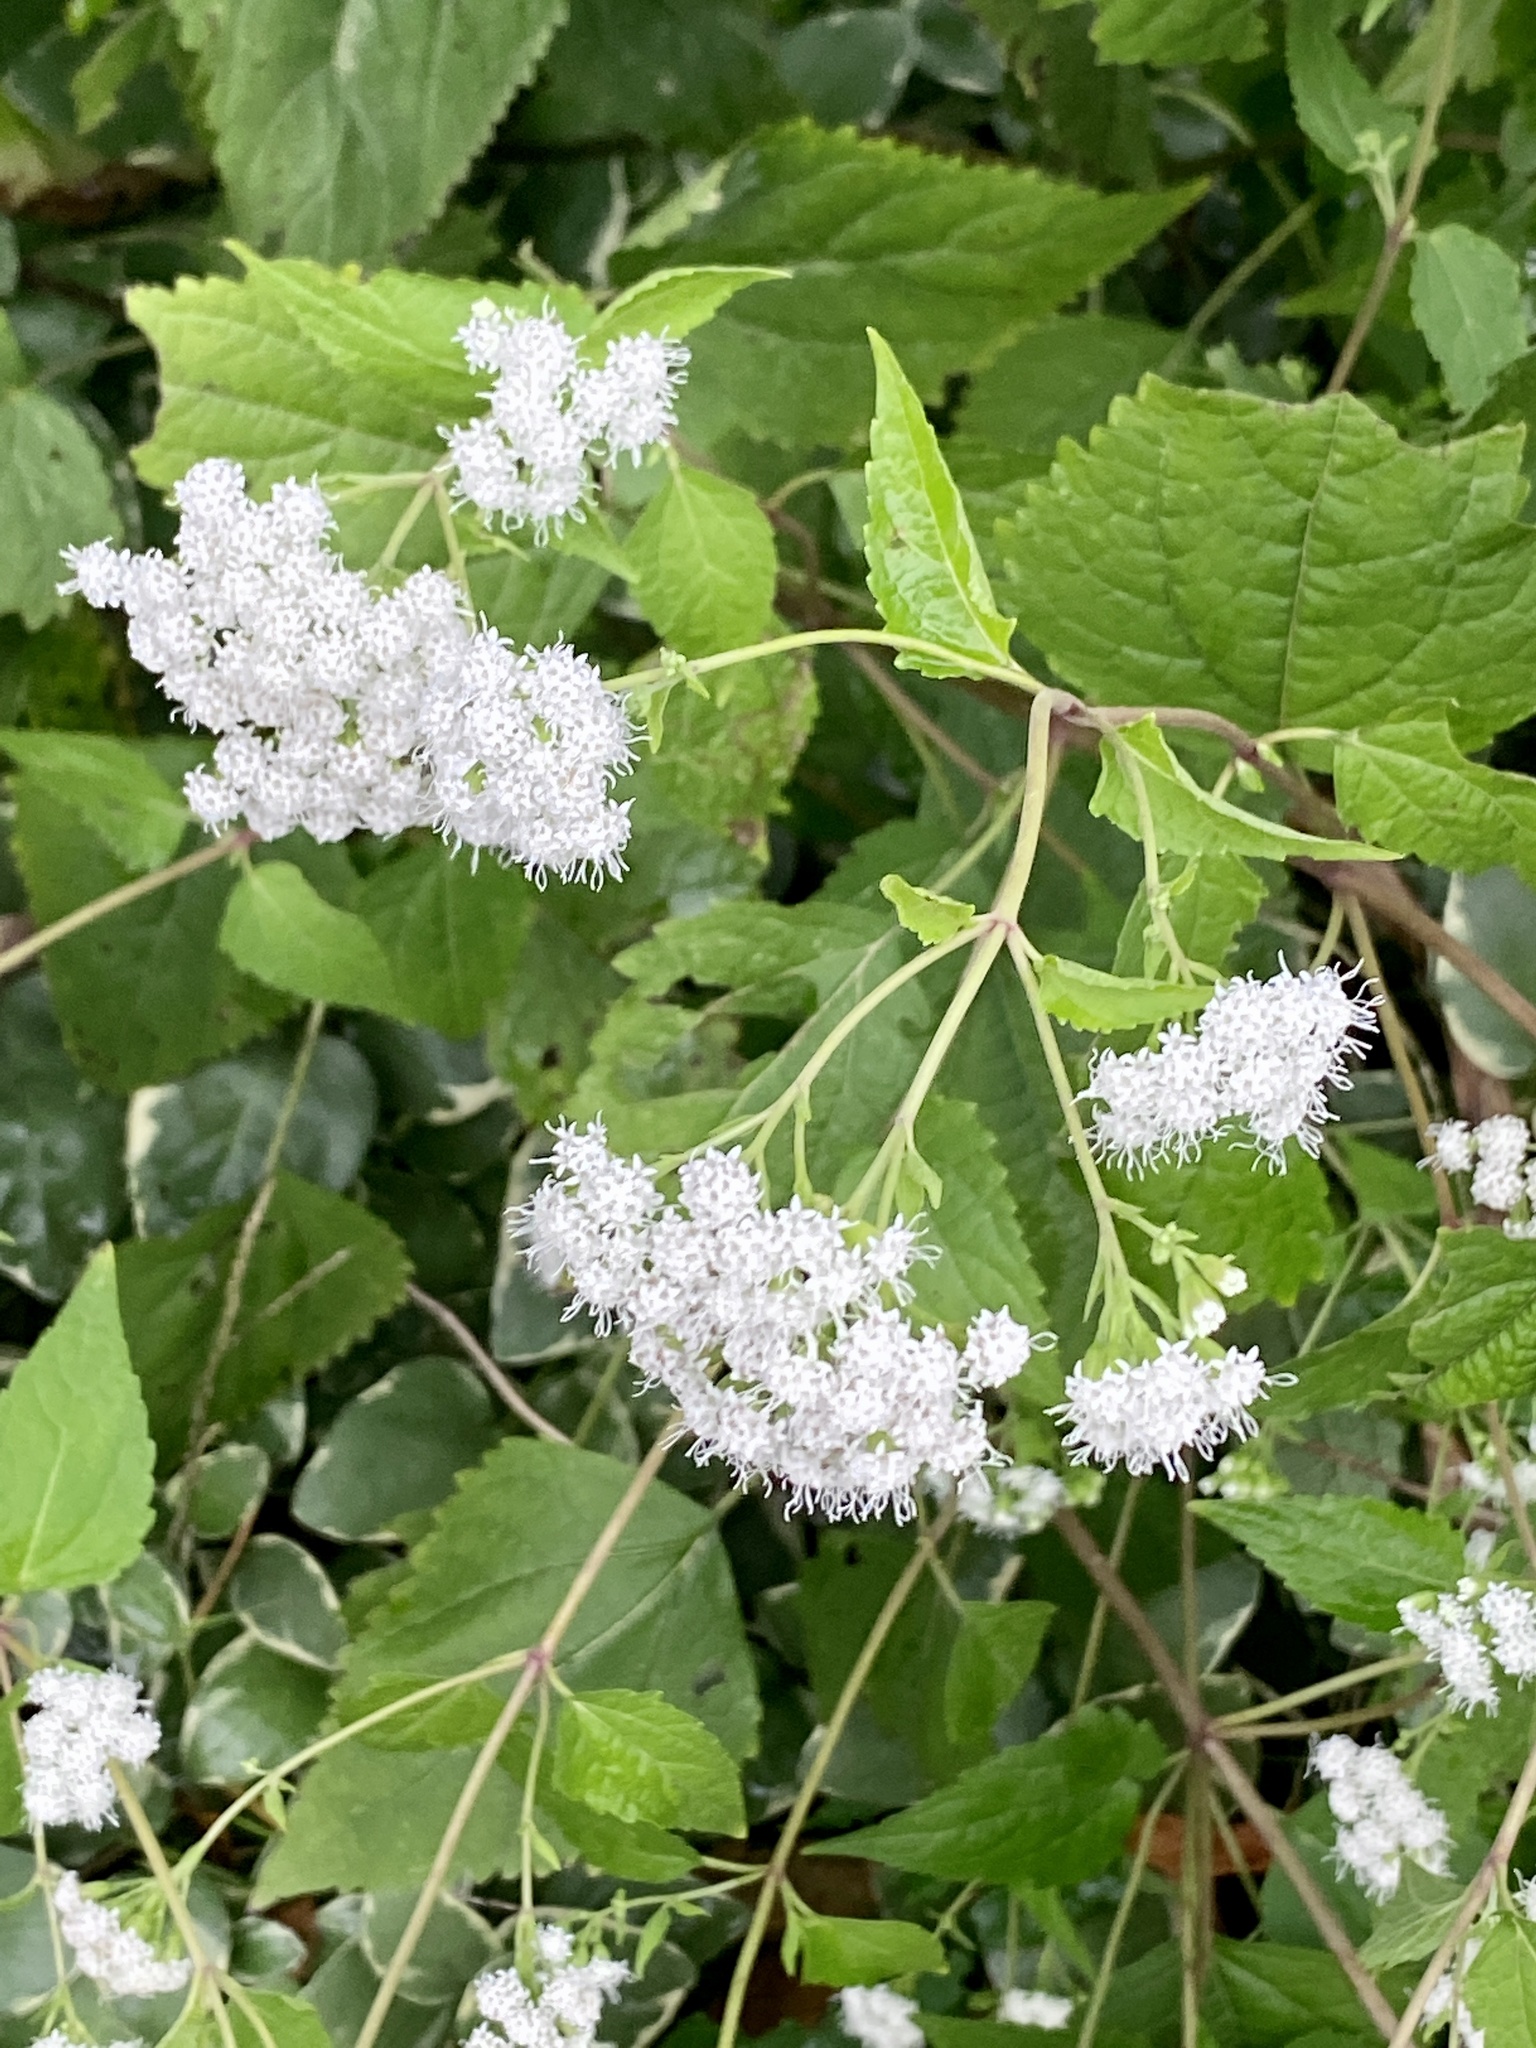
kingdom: Plantae
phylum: Tracheophyta
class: Magnoliopsida
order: Asterales
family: Asteraceae
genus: Ageratina
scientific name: Ageratina altissima
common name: White snakeroot
